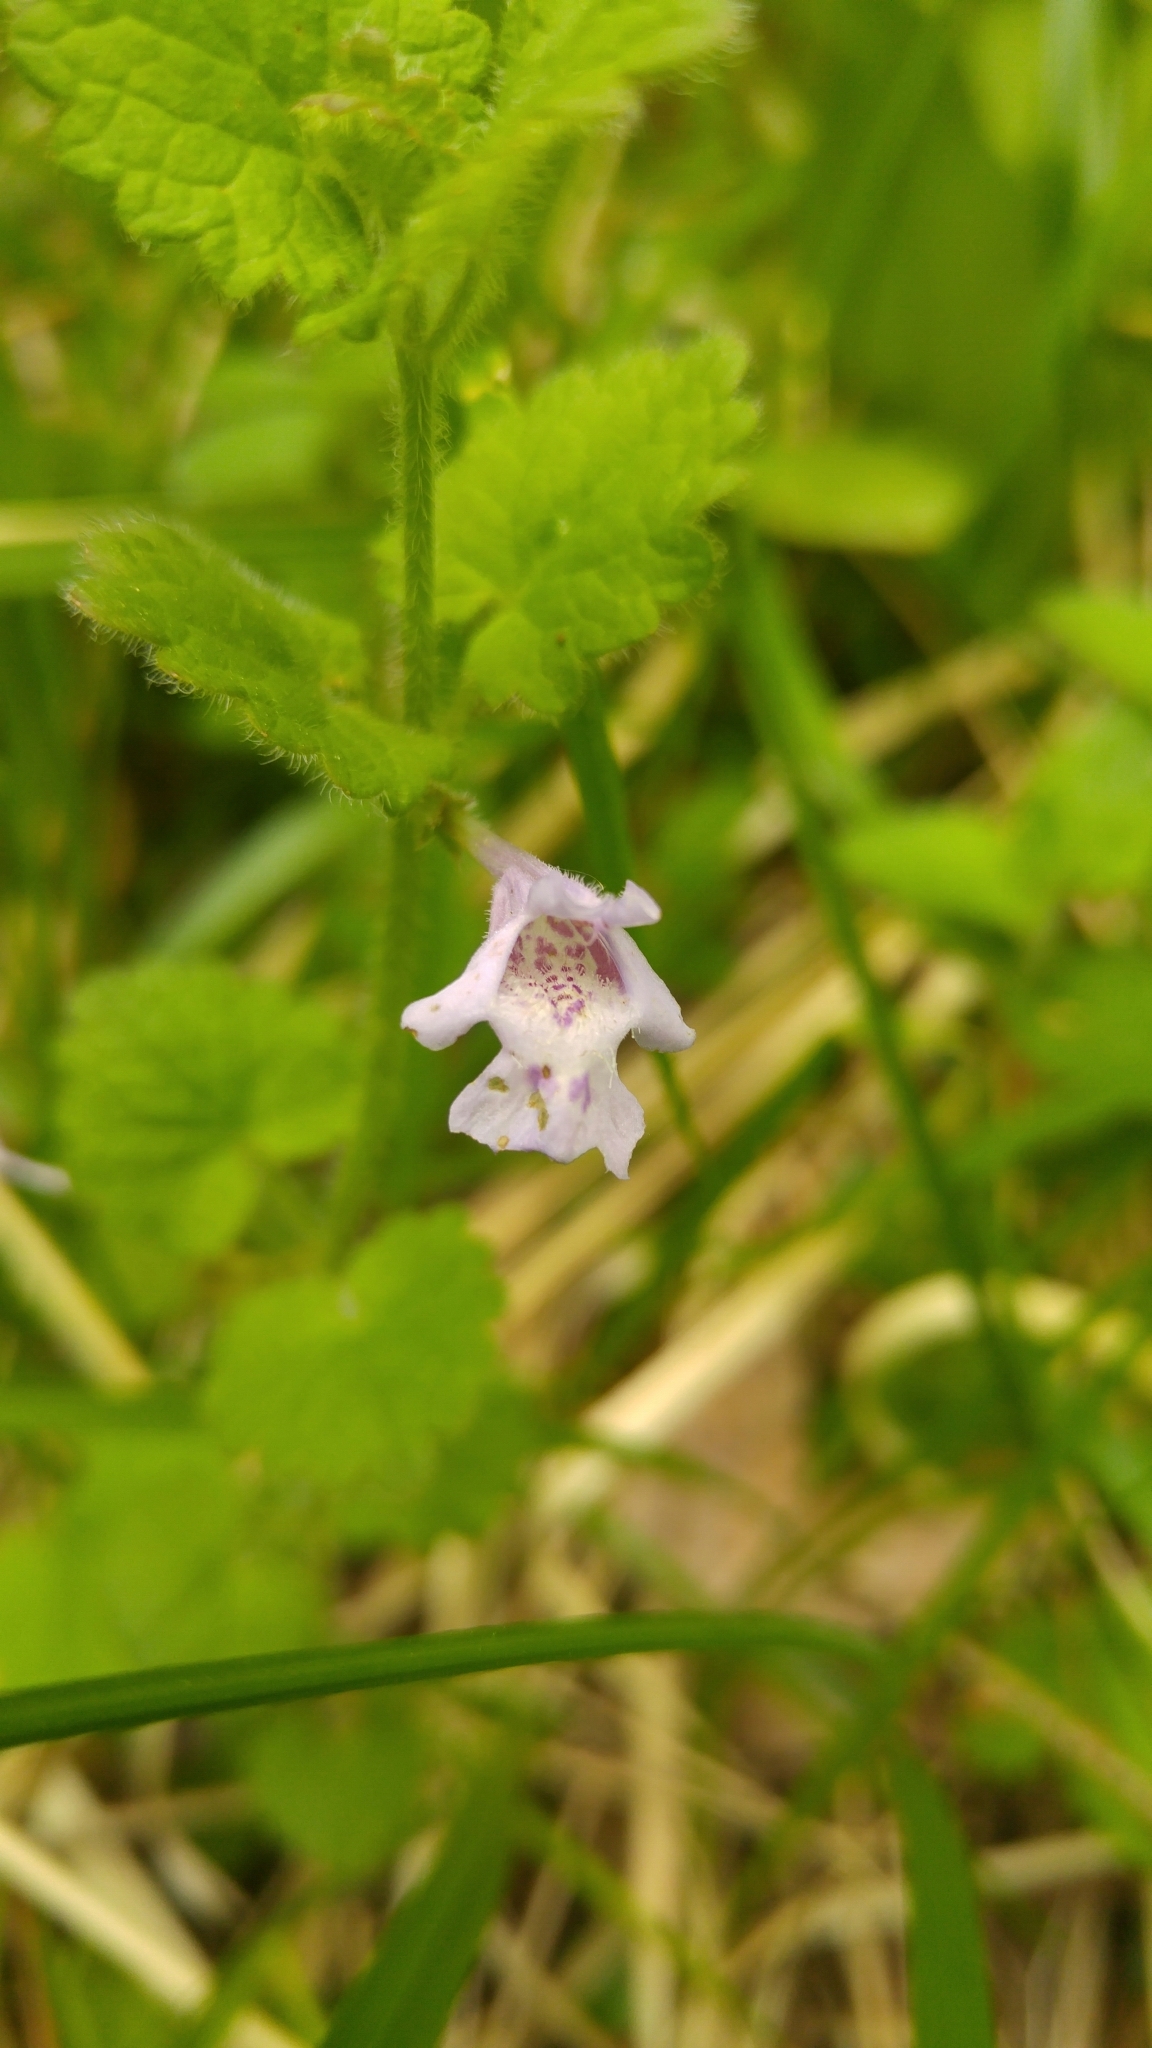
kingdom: Plantae
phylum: Tracheophyta
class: Magnoliopsida
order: Lamiales
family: Lamiaceae
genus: Glechoma
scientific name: Glechoma hederacea
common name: Ground ivy
